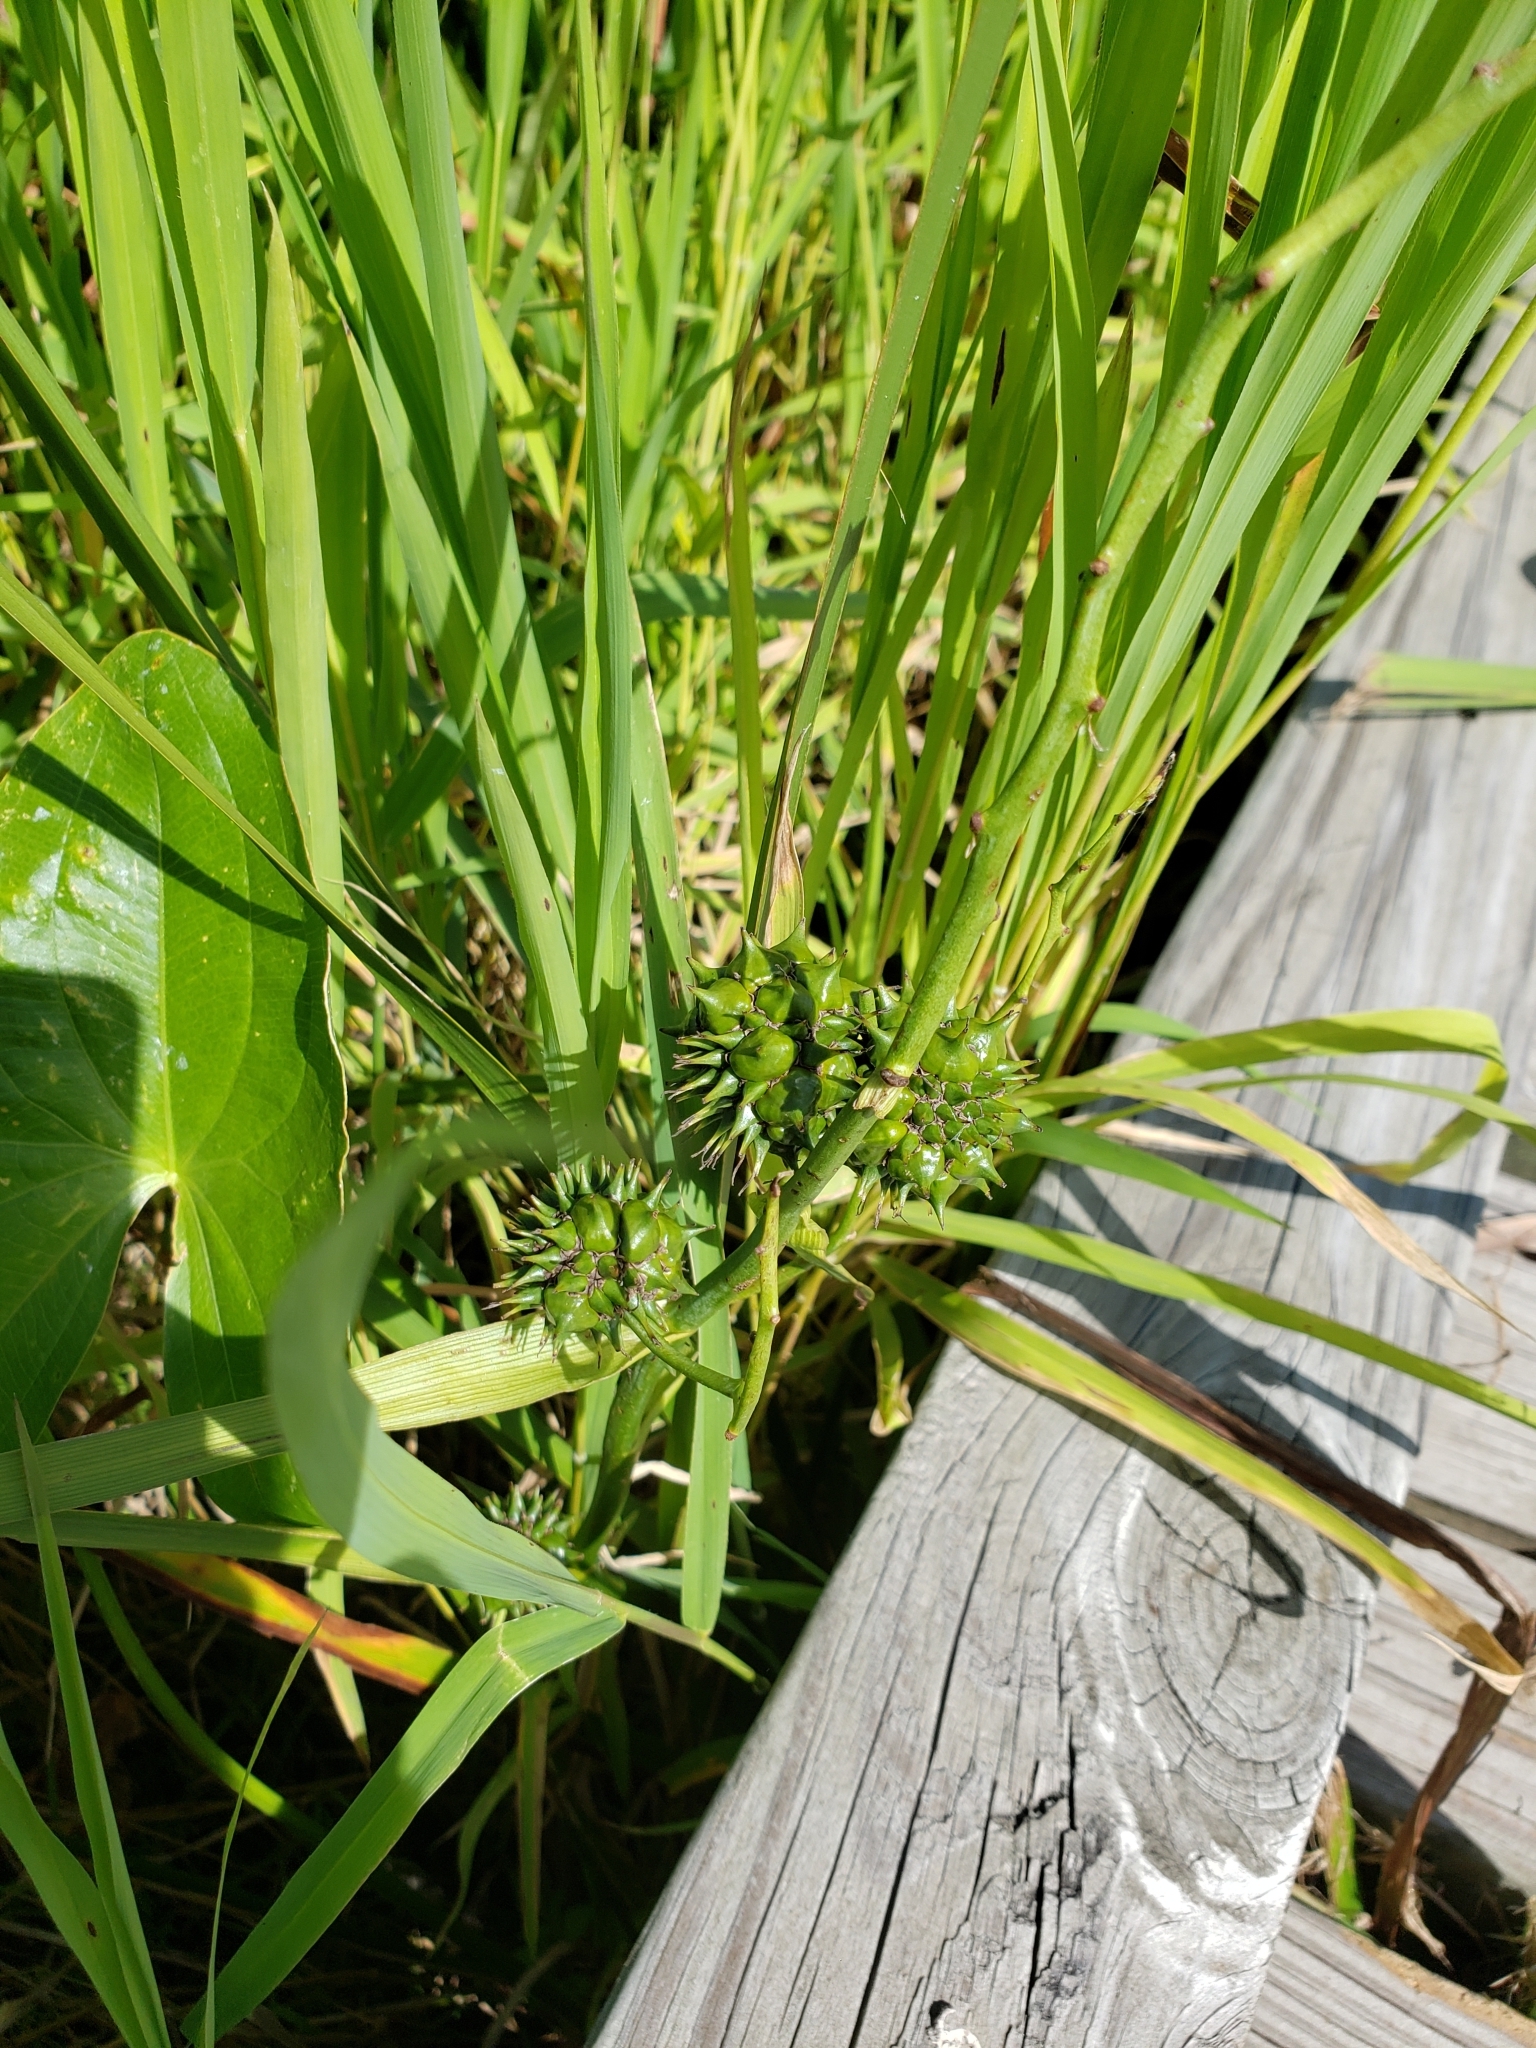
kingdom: Plantae
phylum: Tracheophyta
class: Liliopsida
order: Poales
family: Typhaceae
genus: Sparganium
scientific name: Sparganium eurycarpum
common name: Broad-fruited burreed
